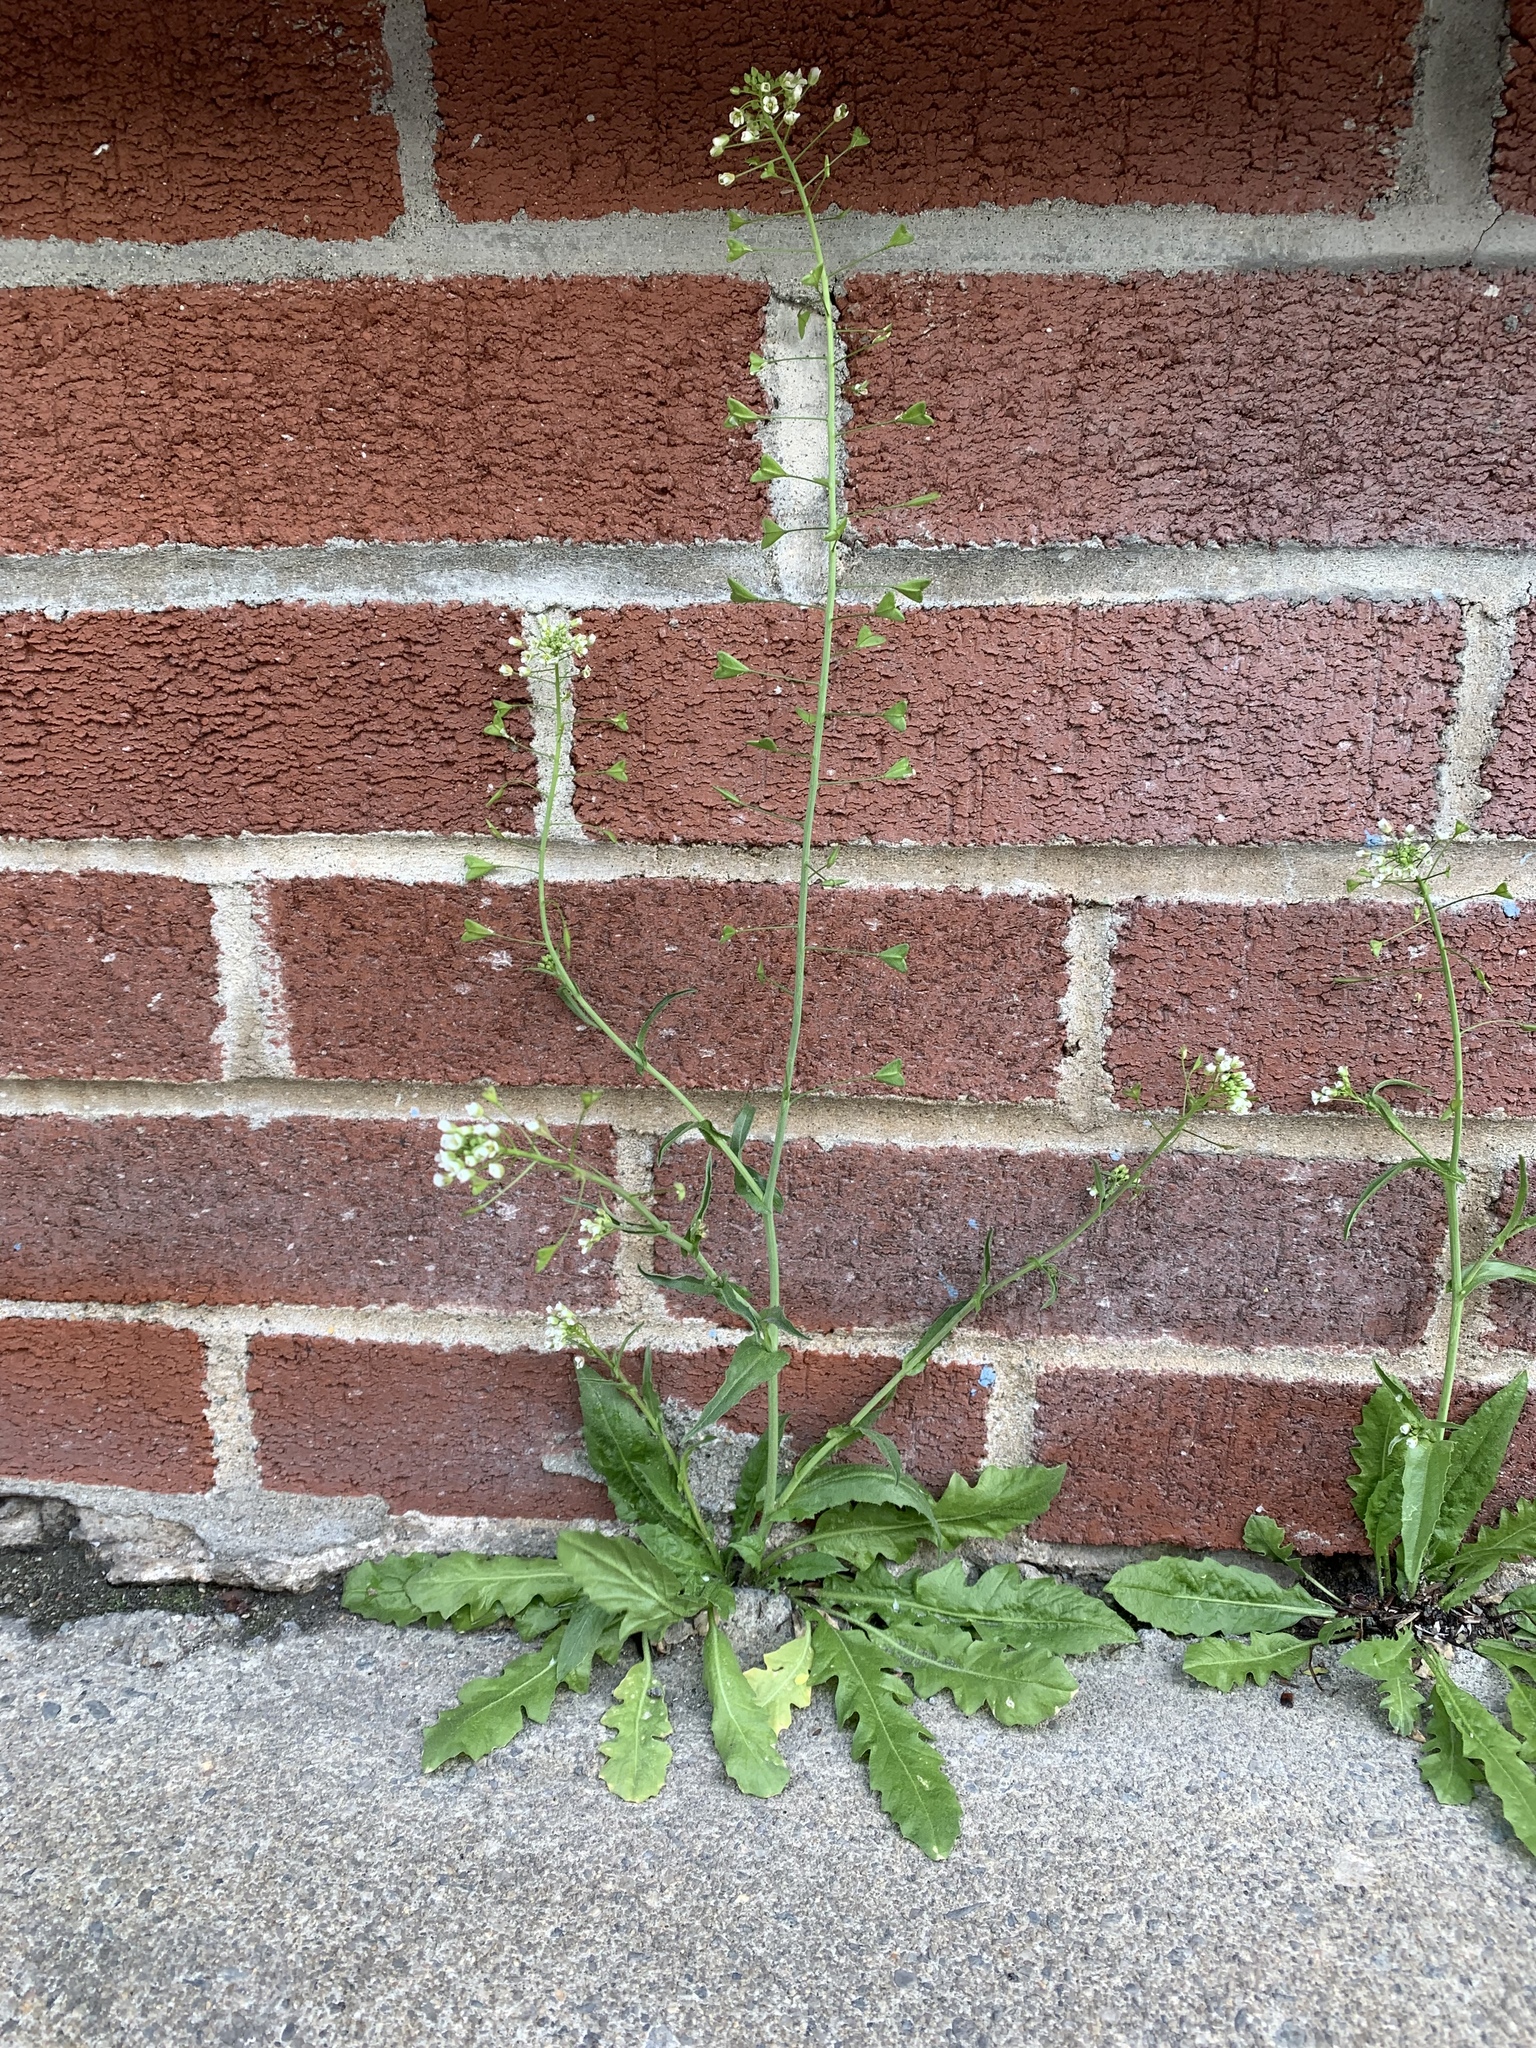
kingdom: Plantae
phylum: Tracheophyta
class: Magnoliopsida
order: Brassicales
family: Brassicaceae
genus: Capsella
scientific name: Capsella bursa-pastoris
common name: Shepherd's purse
